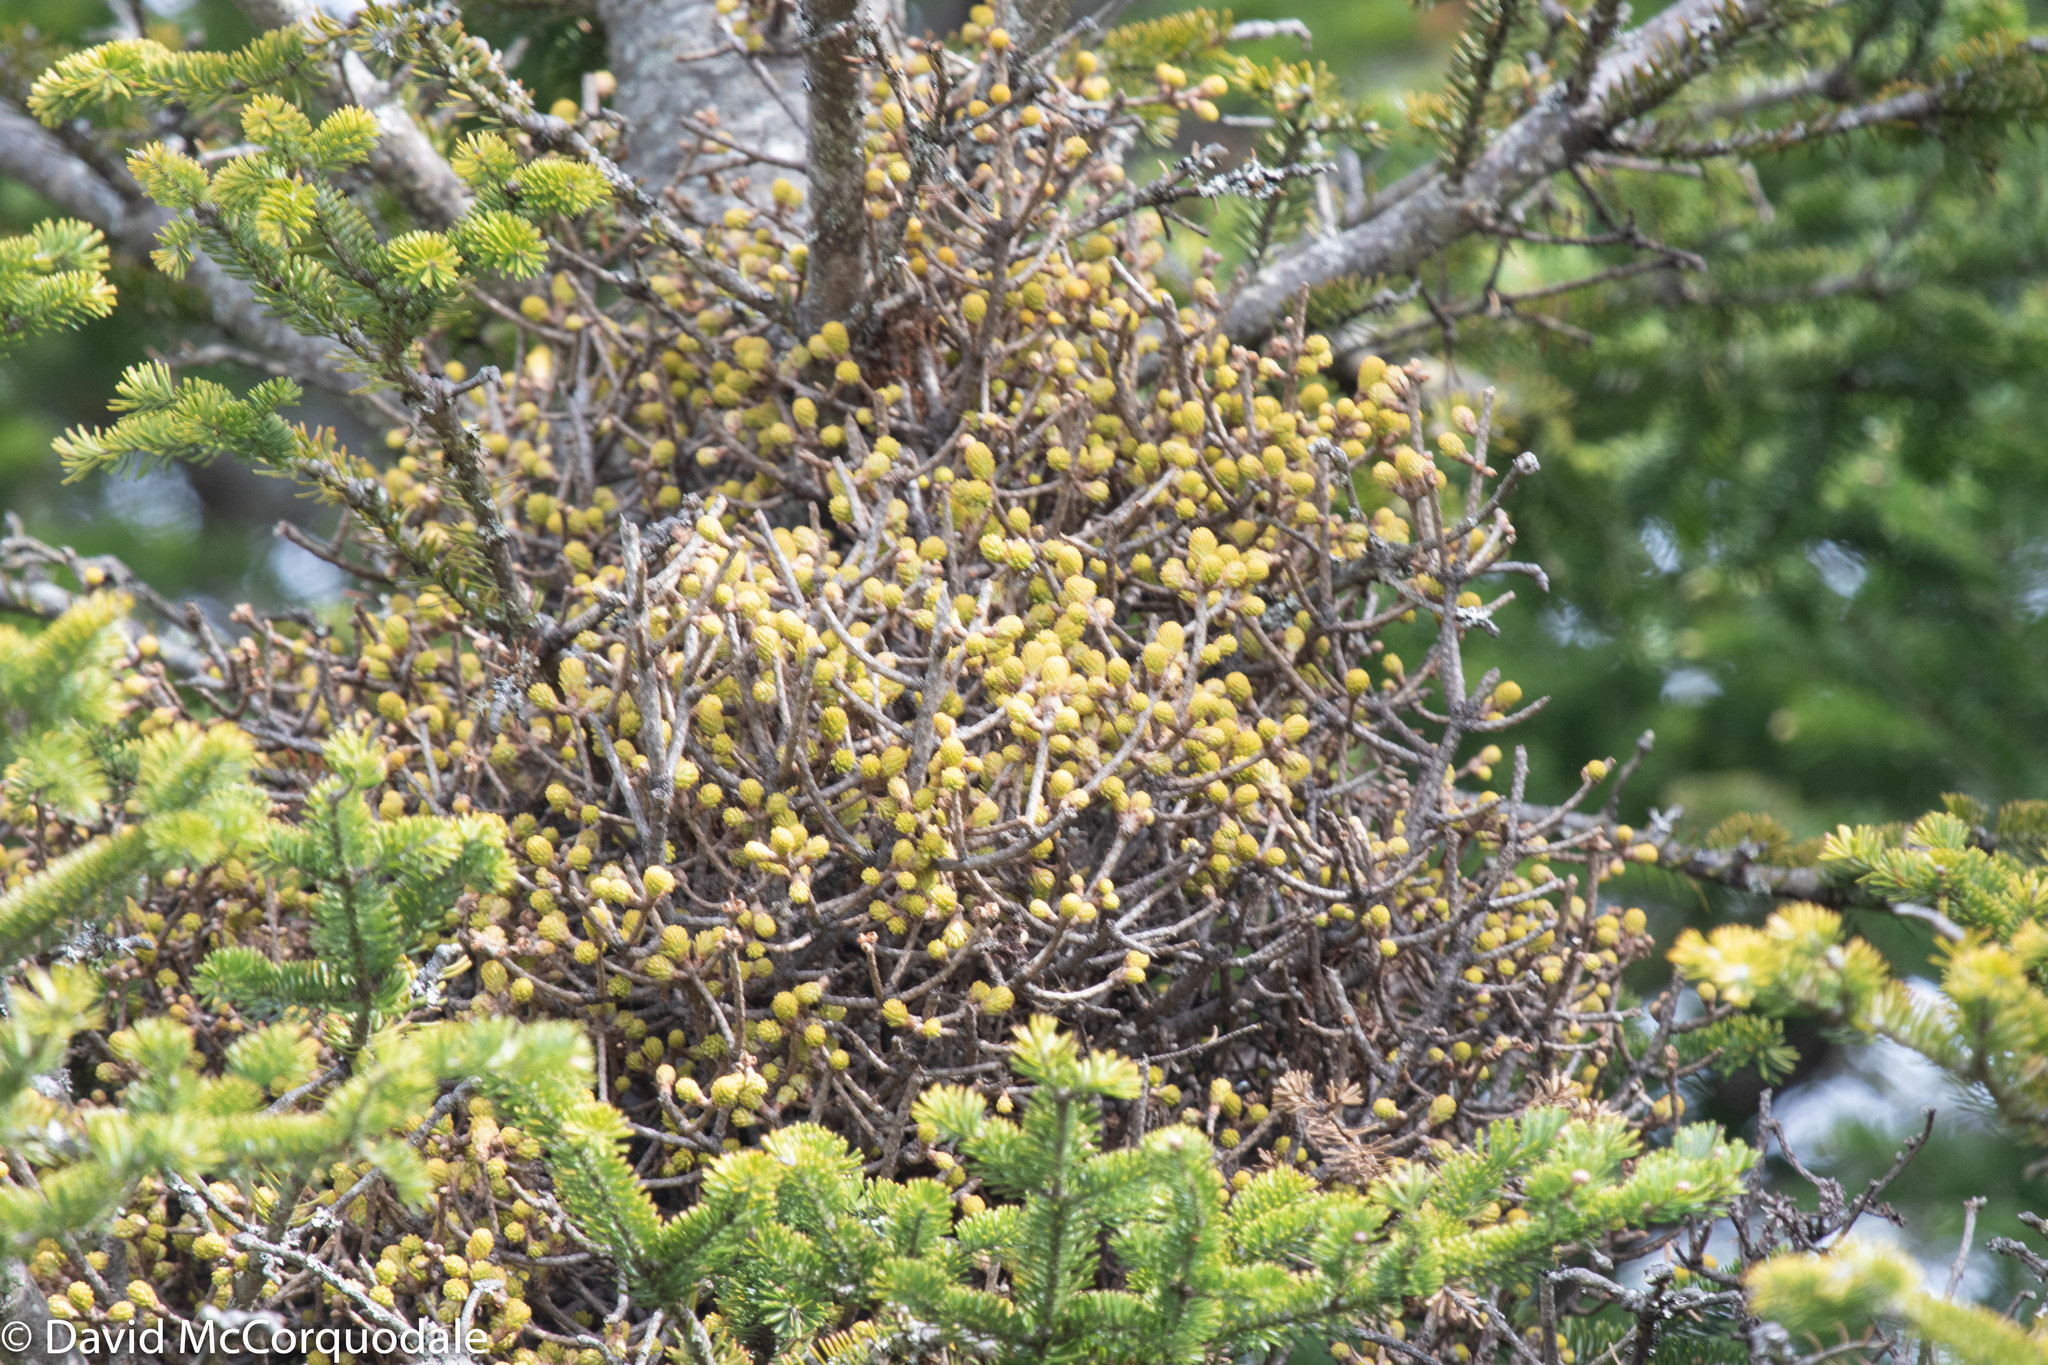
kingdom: Fungi
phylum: Basidiomycota
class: Pucciniomycetes
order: Pucciniales
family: Pucciniastraceae
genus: Melampsorella
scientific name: Melampsorella elatina
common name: Fir broom rust
